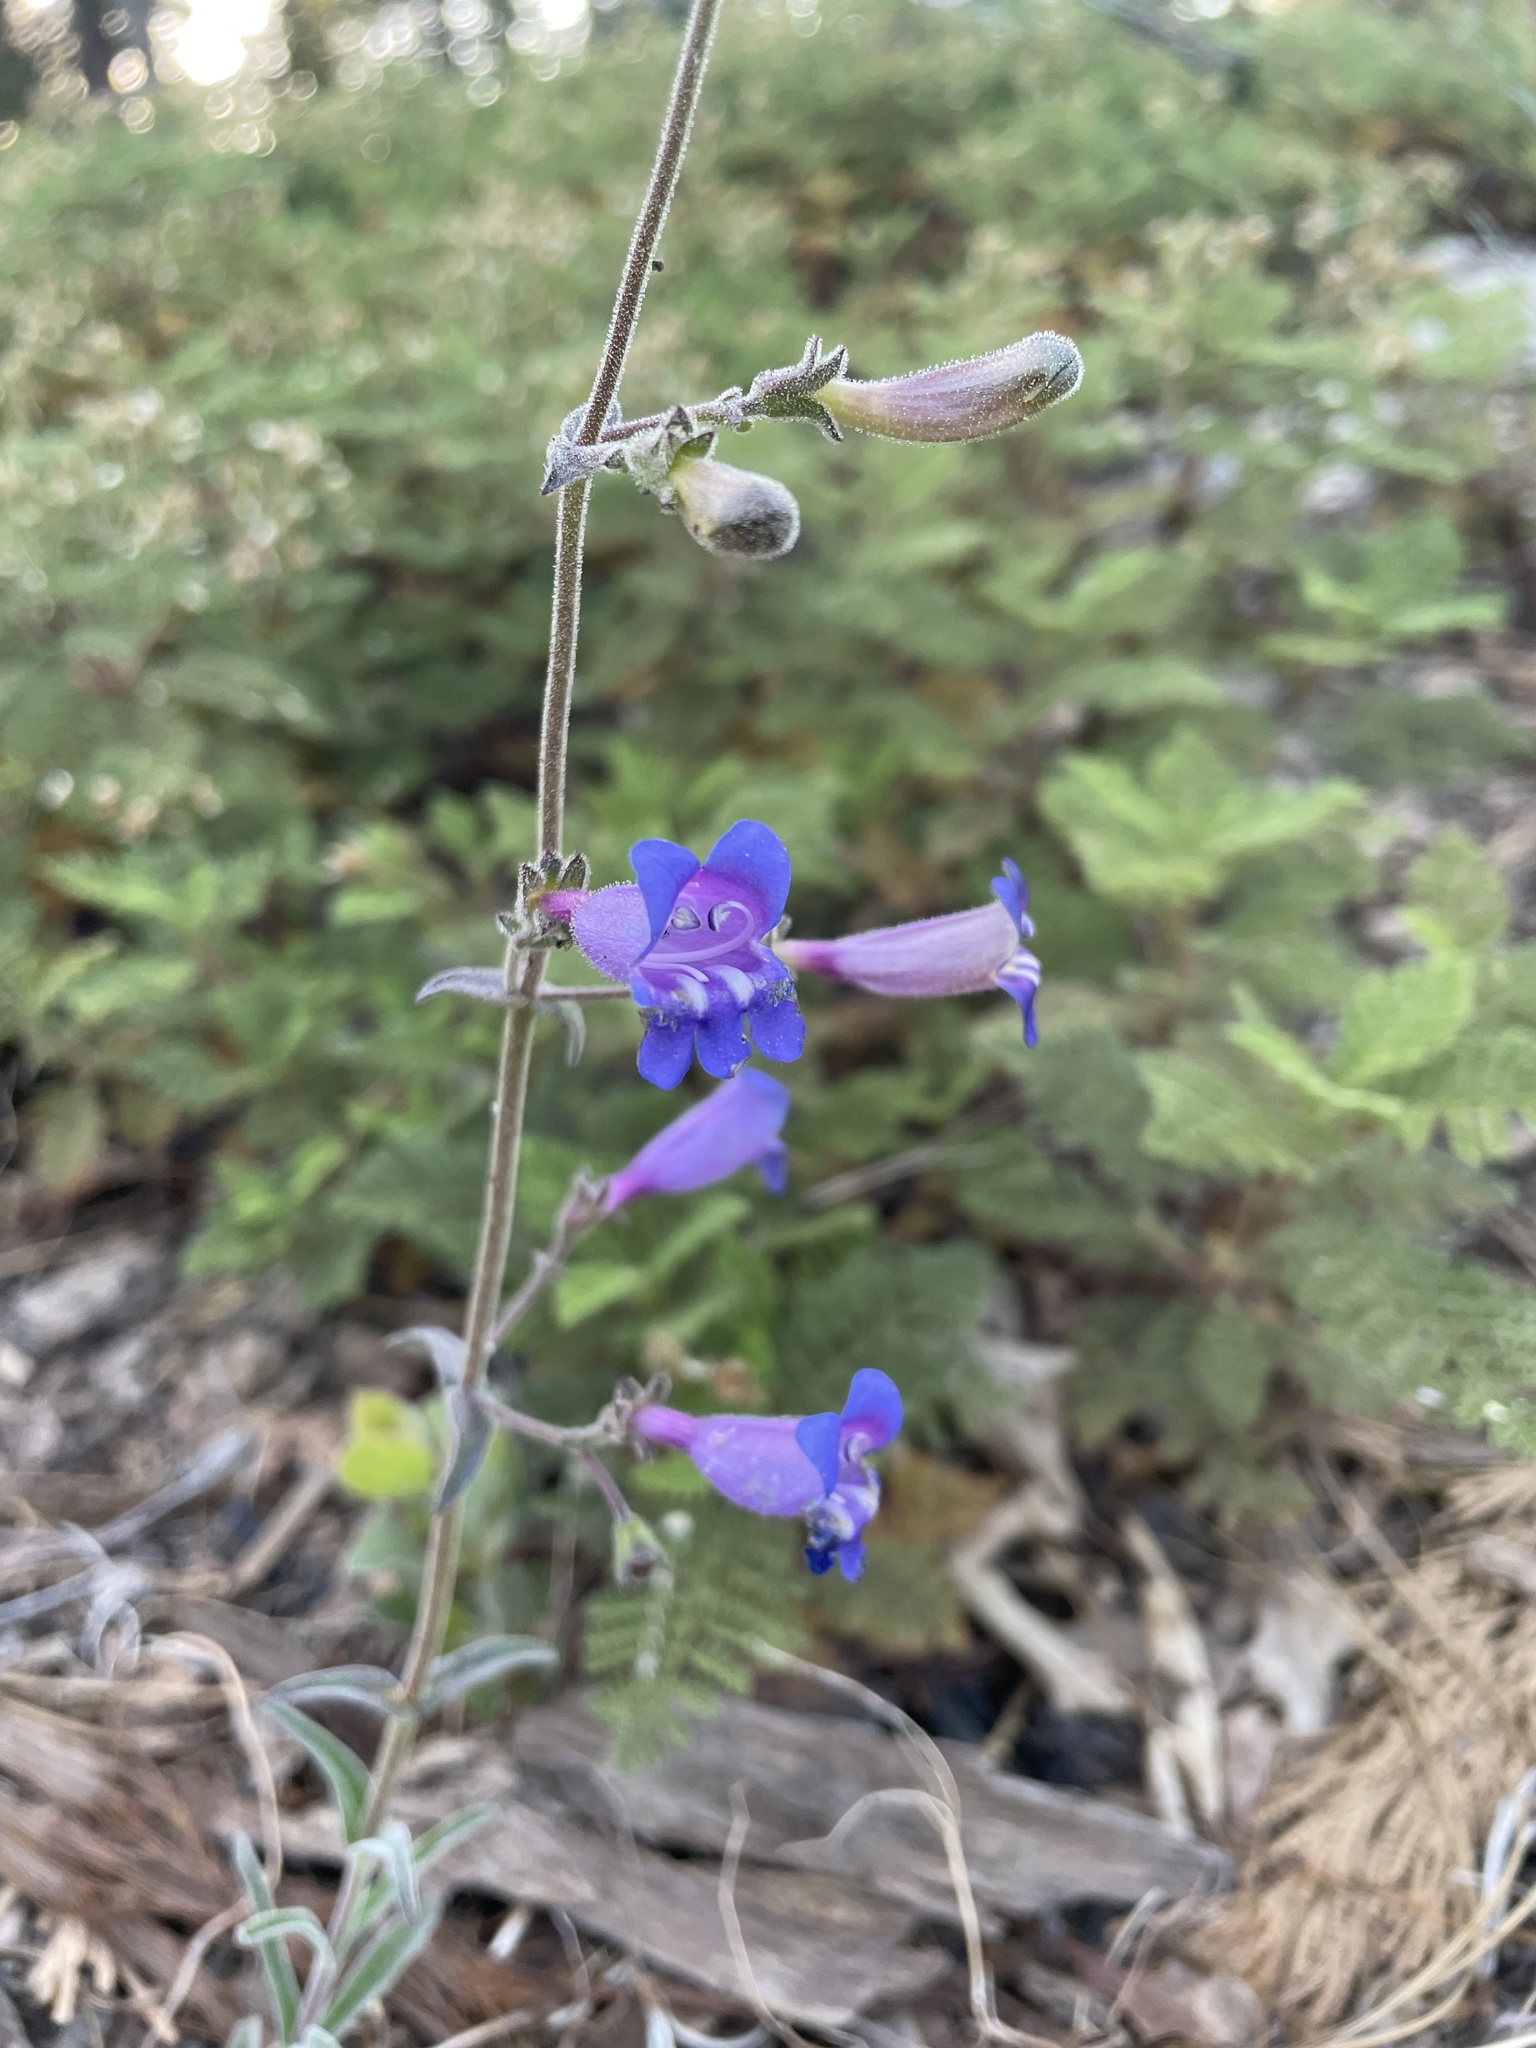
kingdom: Plantae
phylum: Tracheophyta
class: Magnoliopsida
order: Lamiales
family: Plantaginaceae
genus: Penstemon
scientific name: Penstemon laetus
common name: Gay penstemon
